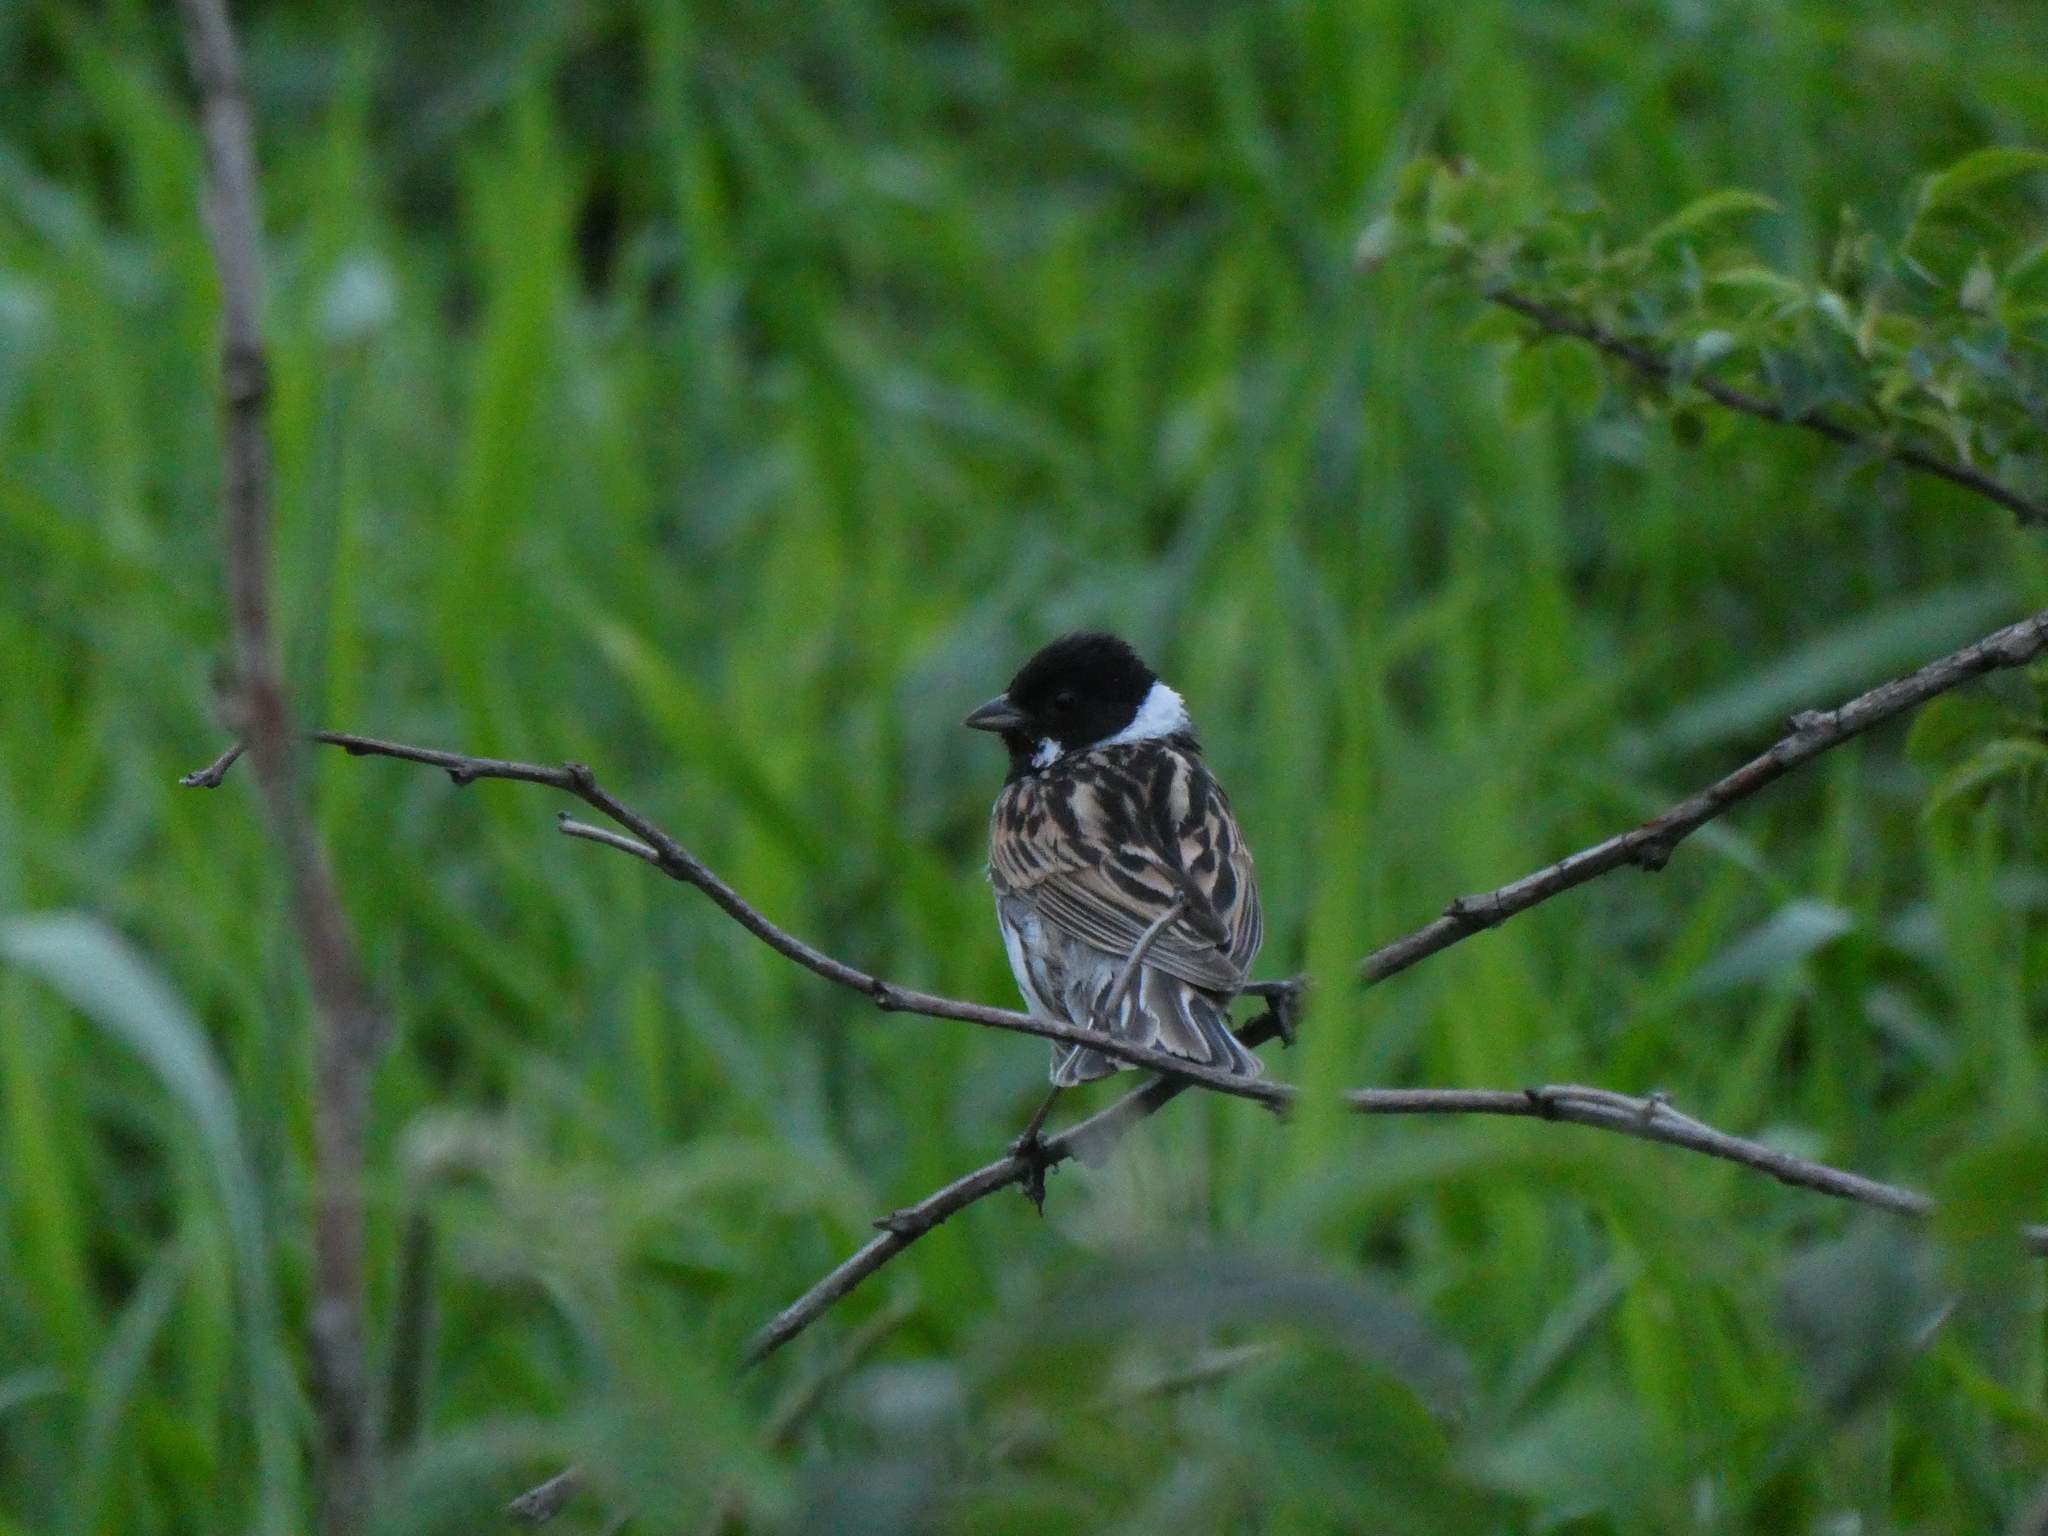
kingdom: Animalia
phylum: Chordata
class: Aves
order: Passeriformes
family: Emberizidae
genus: Emberiza
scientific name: Emberiza schoeniclus
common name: Reed bunting
